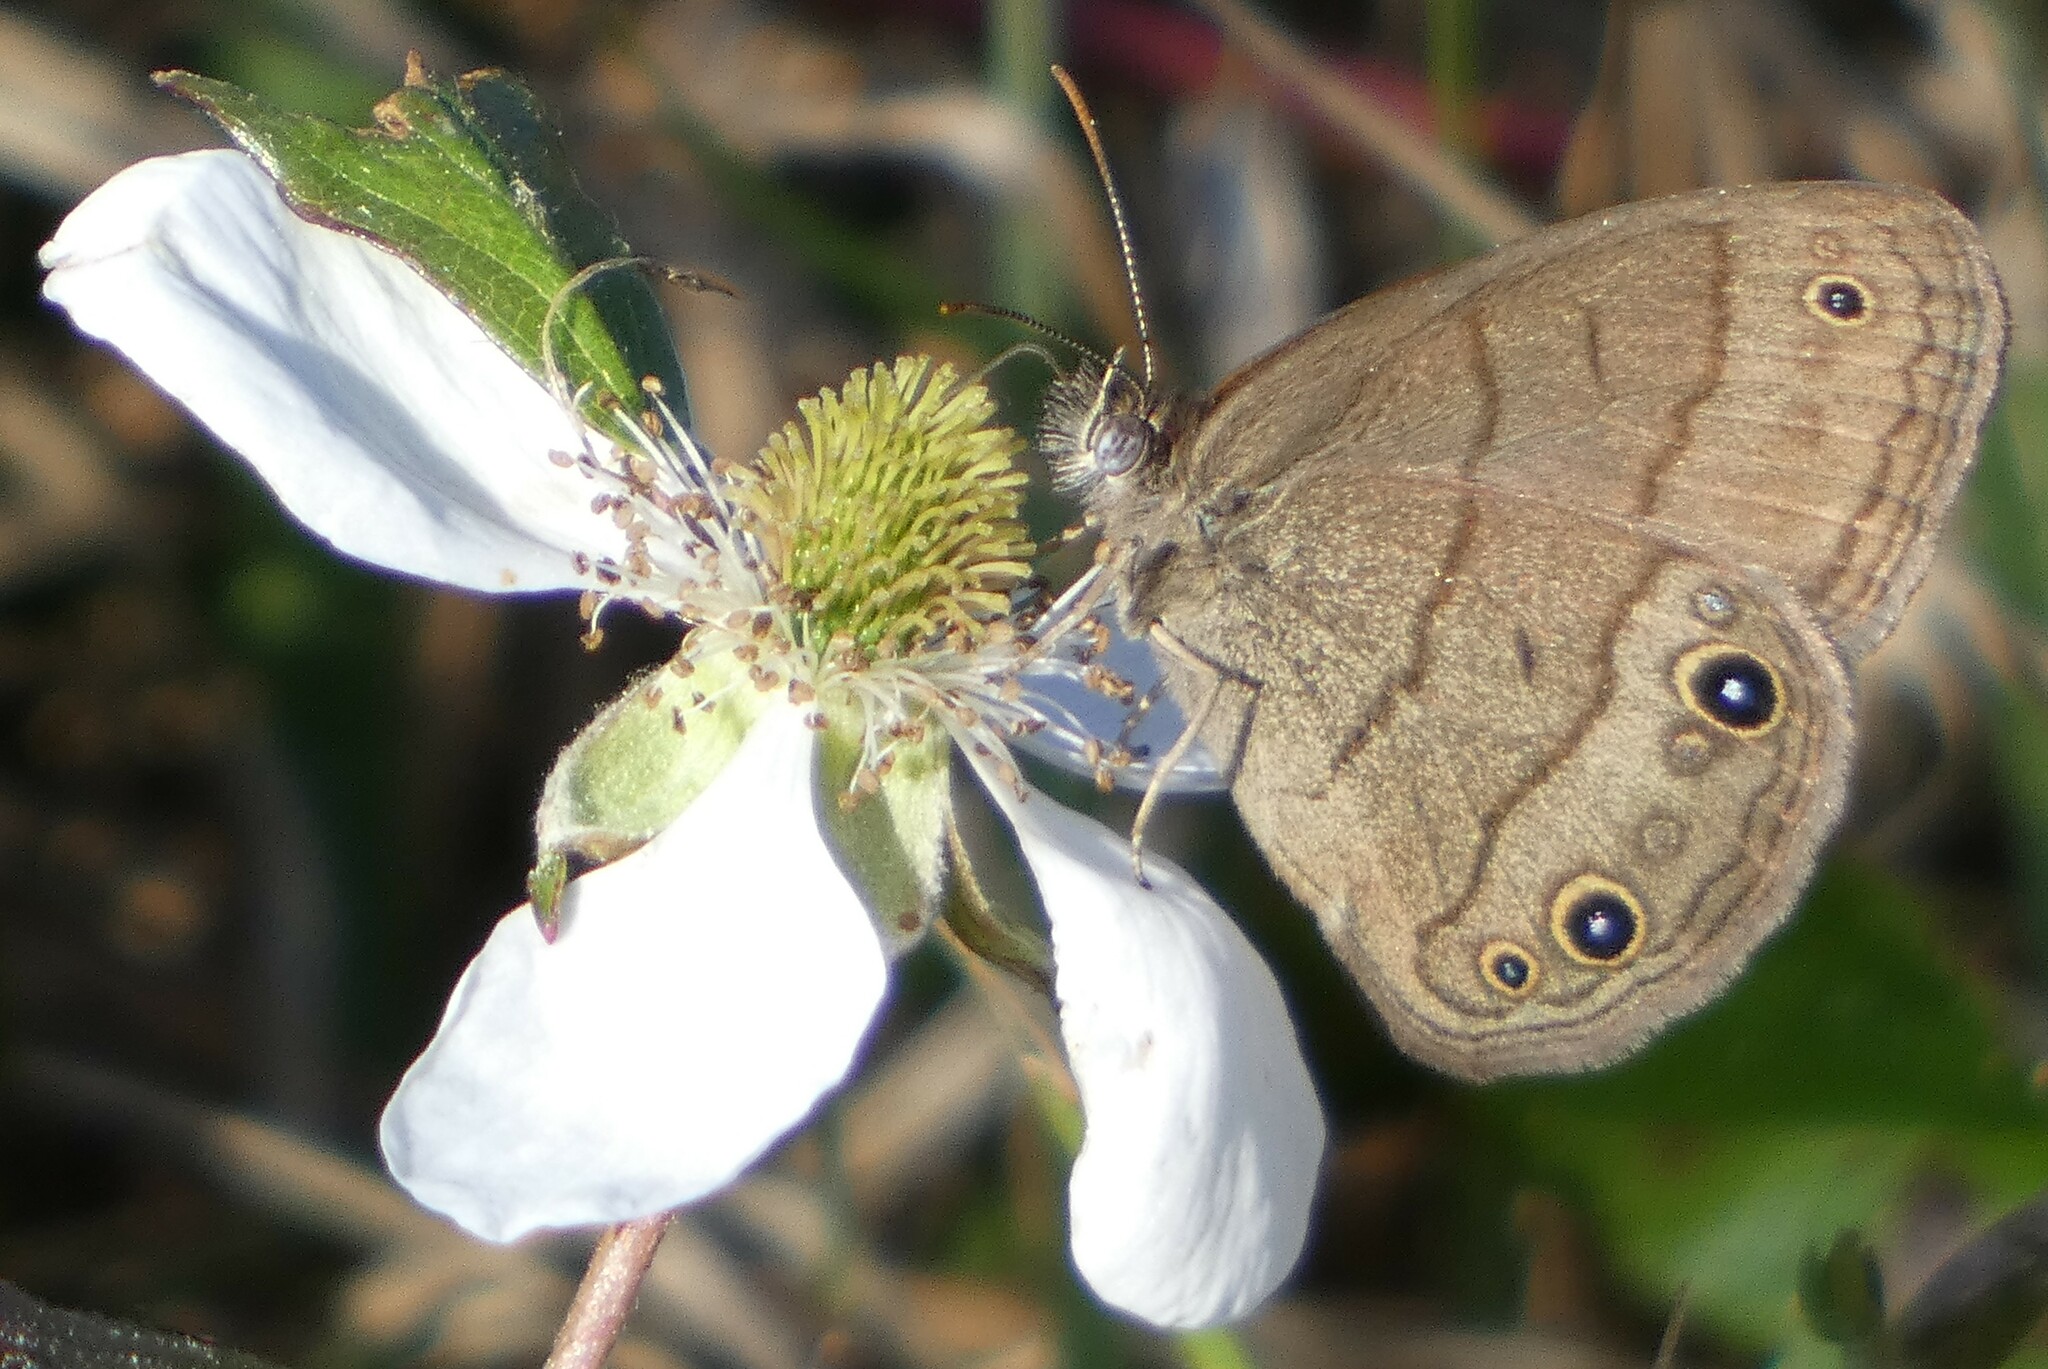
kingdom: Animalia
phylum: Arthropoda
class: Insecta
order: Lepidoptera
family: Nymphalidae
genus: Hermeuptychia
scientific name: Hermeuptychia hermes
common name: Hermes satyr
